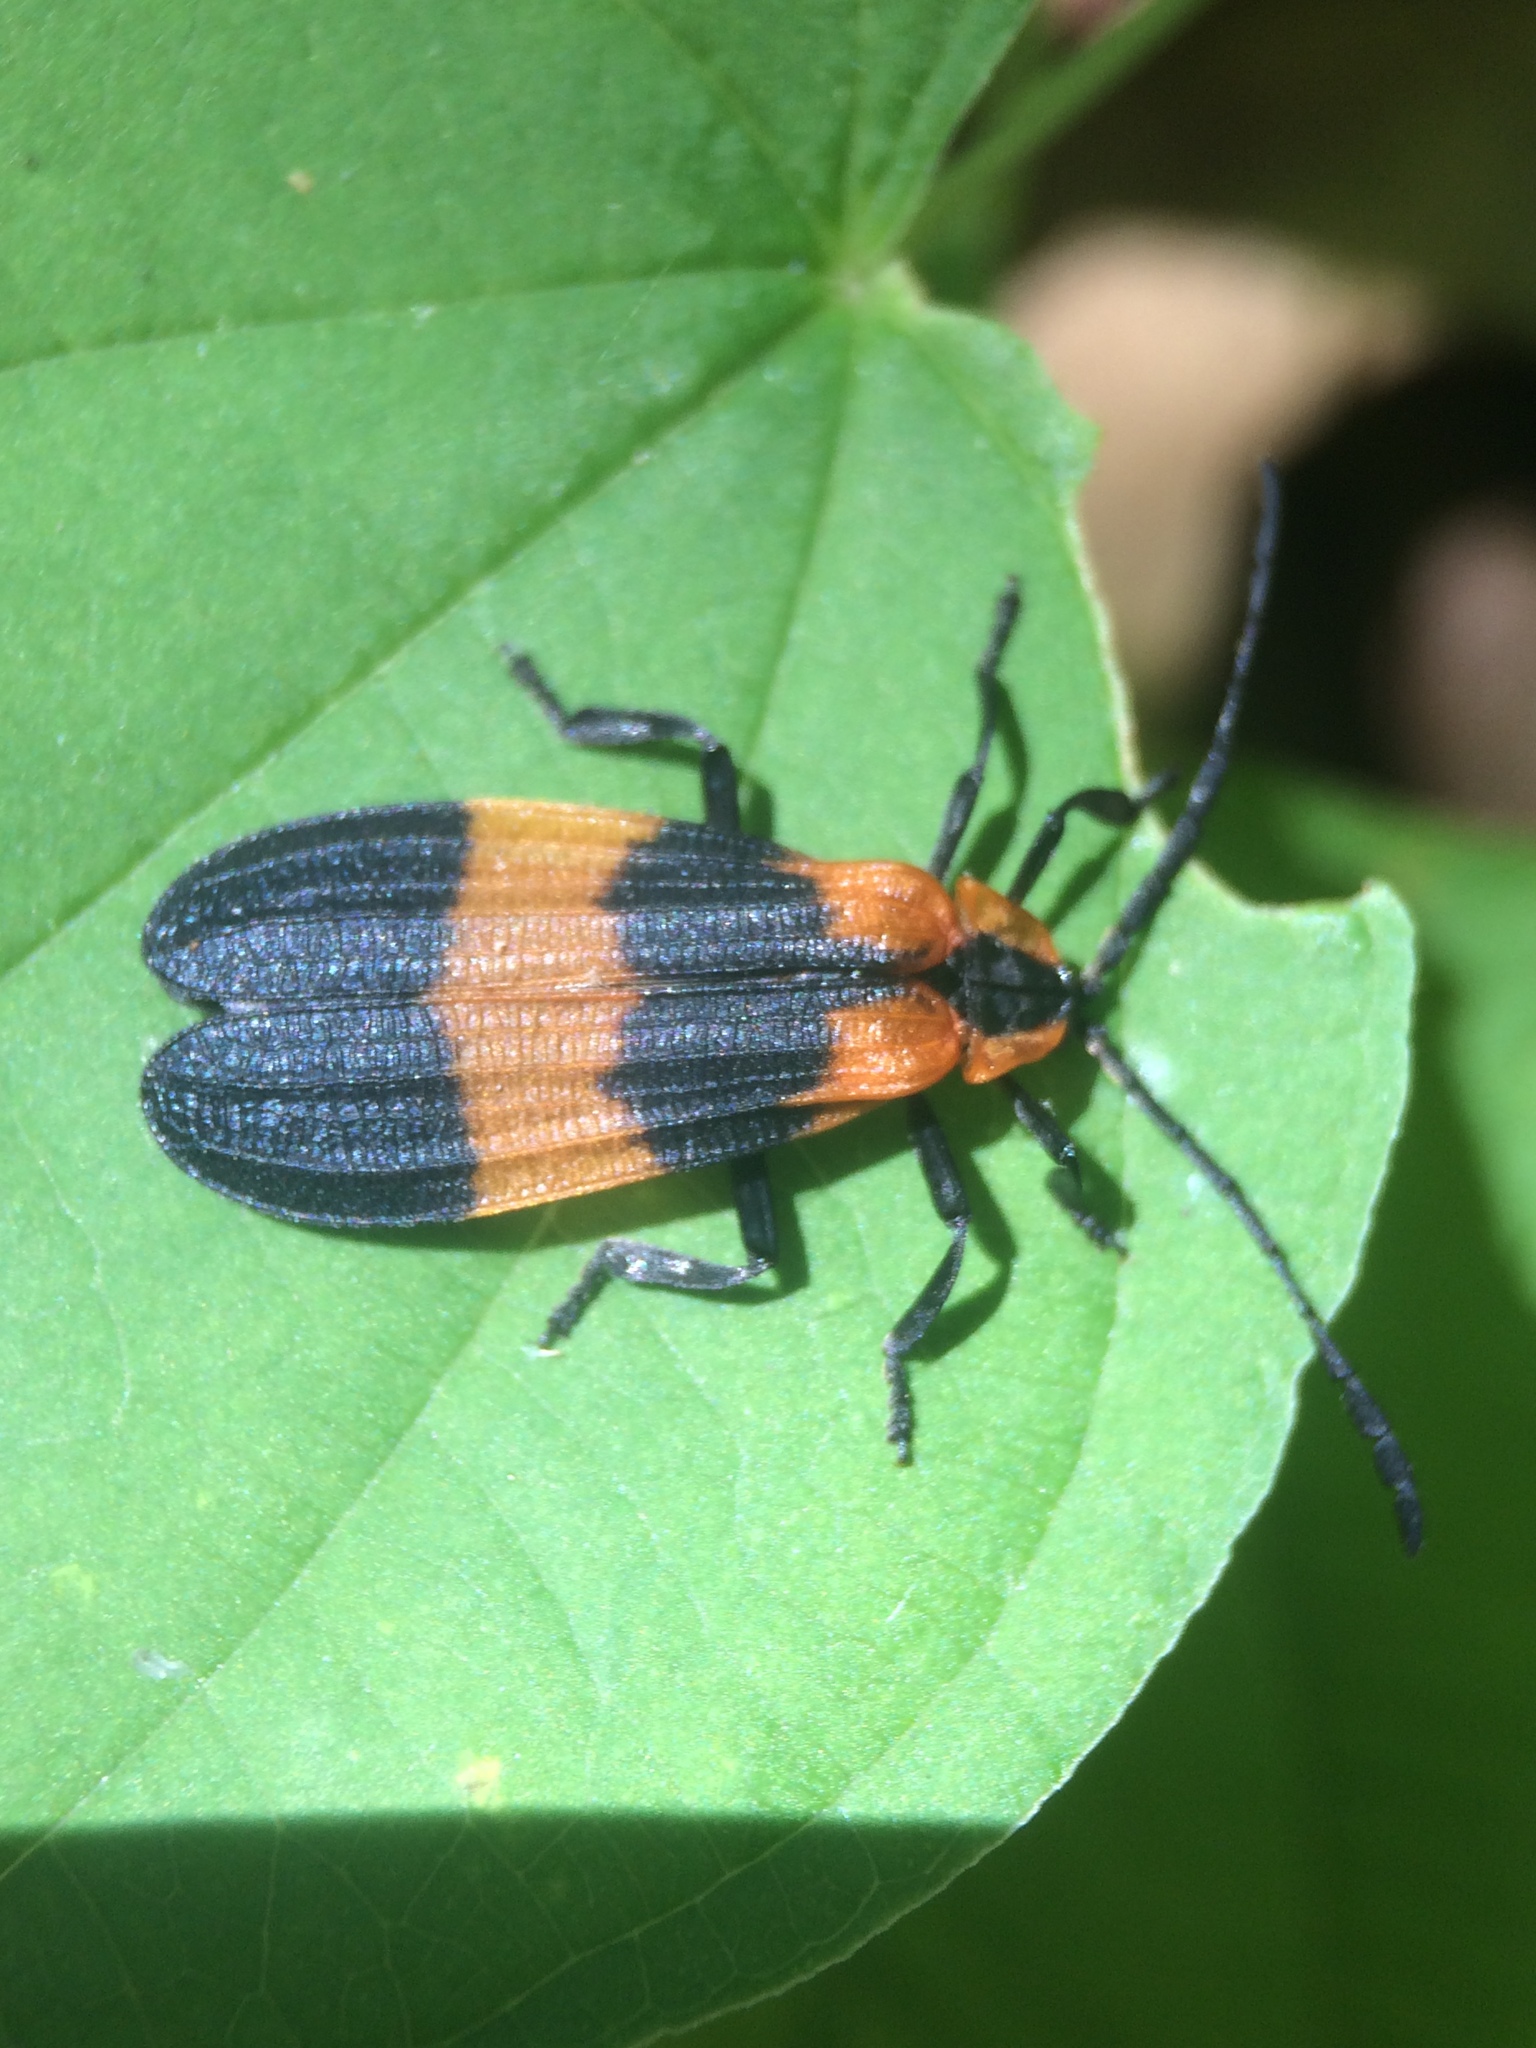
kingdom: Animalia
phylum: Arthropoda
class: Insecta
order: Coleoptera
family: Lycidae
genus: Calopteron
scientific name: Calopteron reticulatum
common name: Banded net-winged beetle
